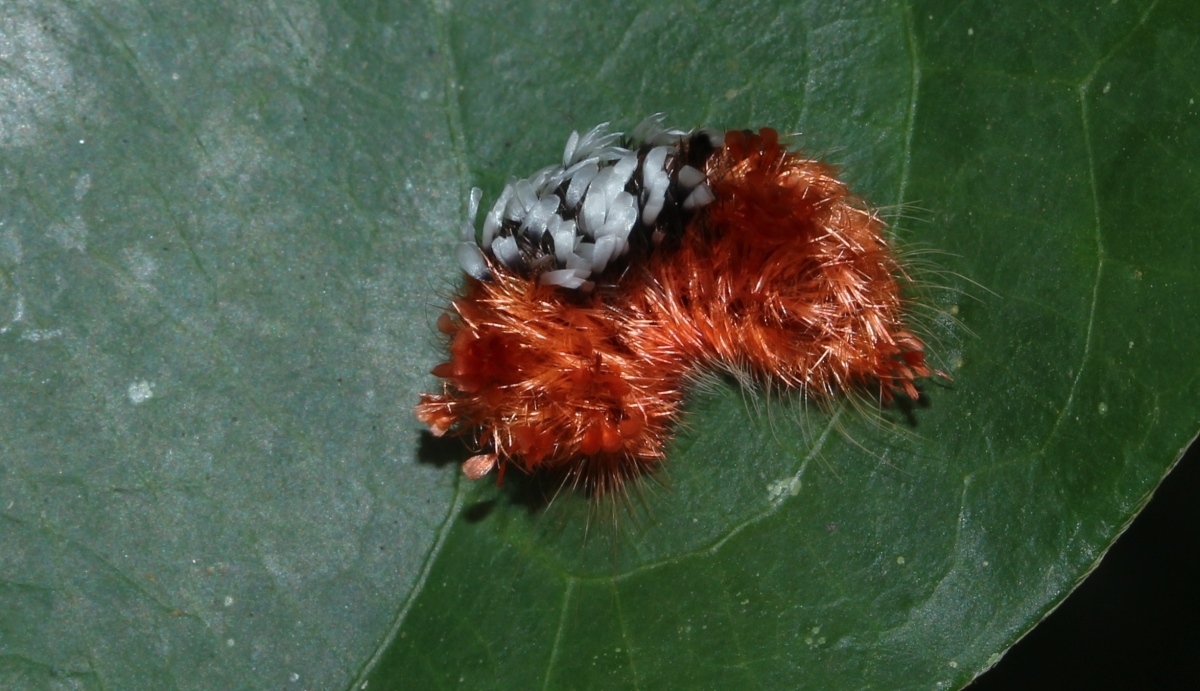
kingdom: Animalia
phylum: Arthropoda
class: Insecta
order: Lepidoptera
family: Bombycidae
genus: Prothysana
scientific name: Prothysana
